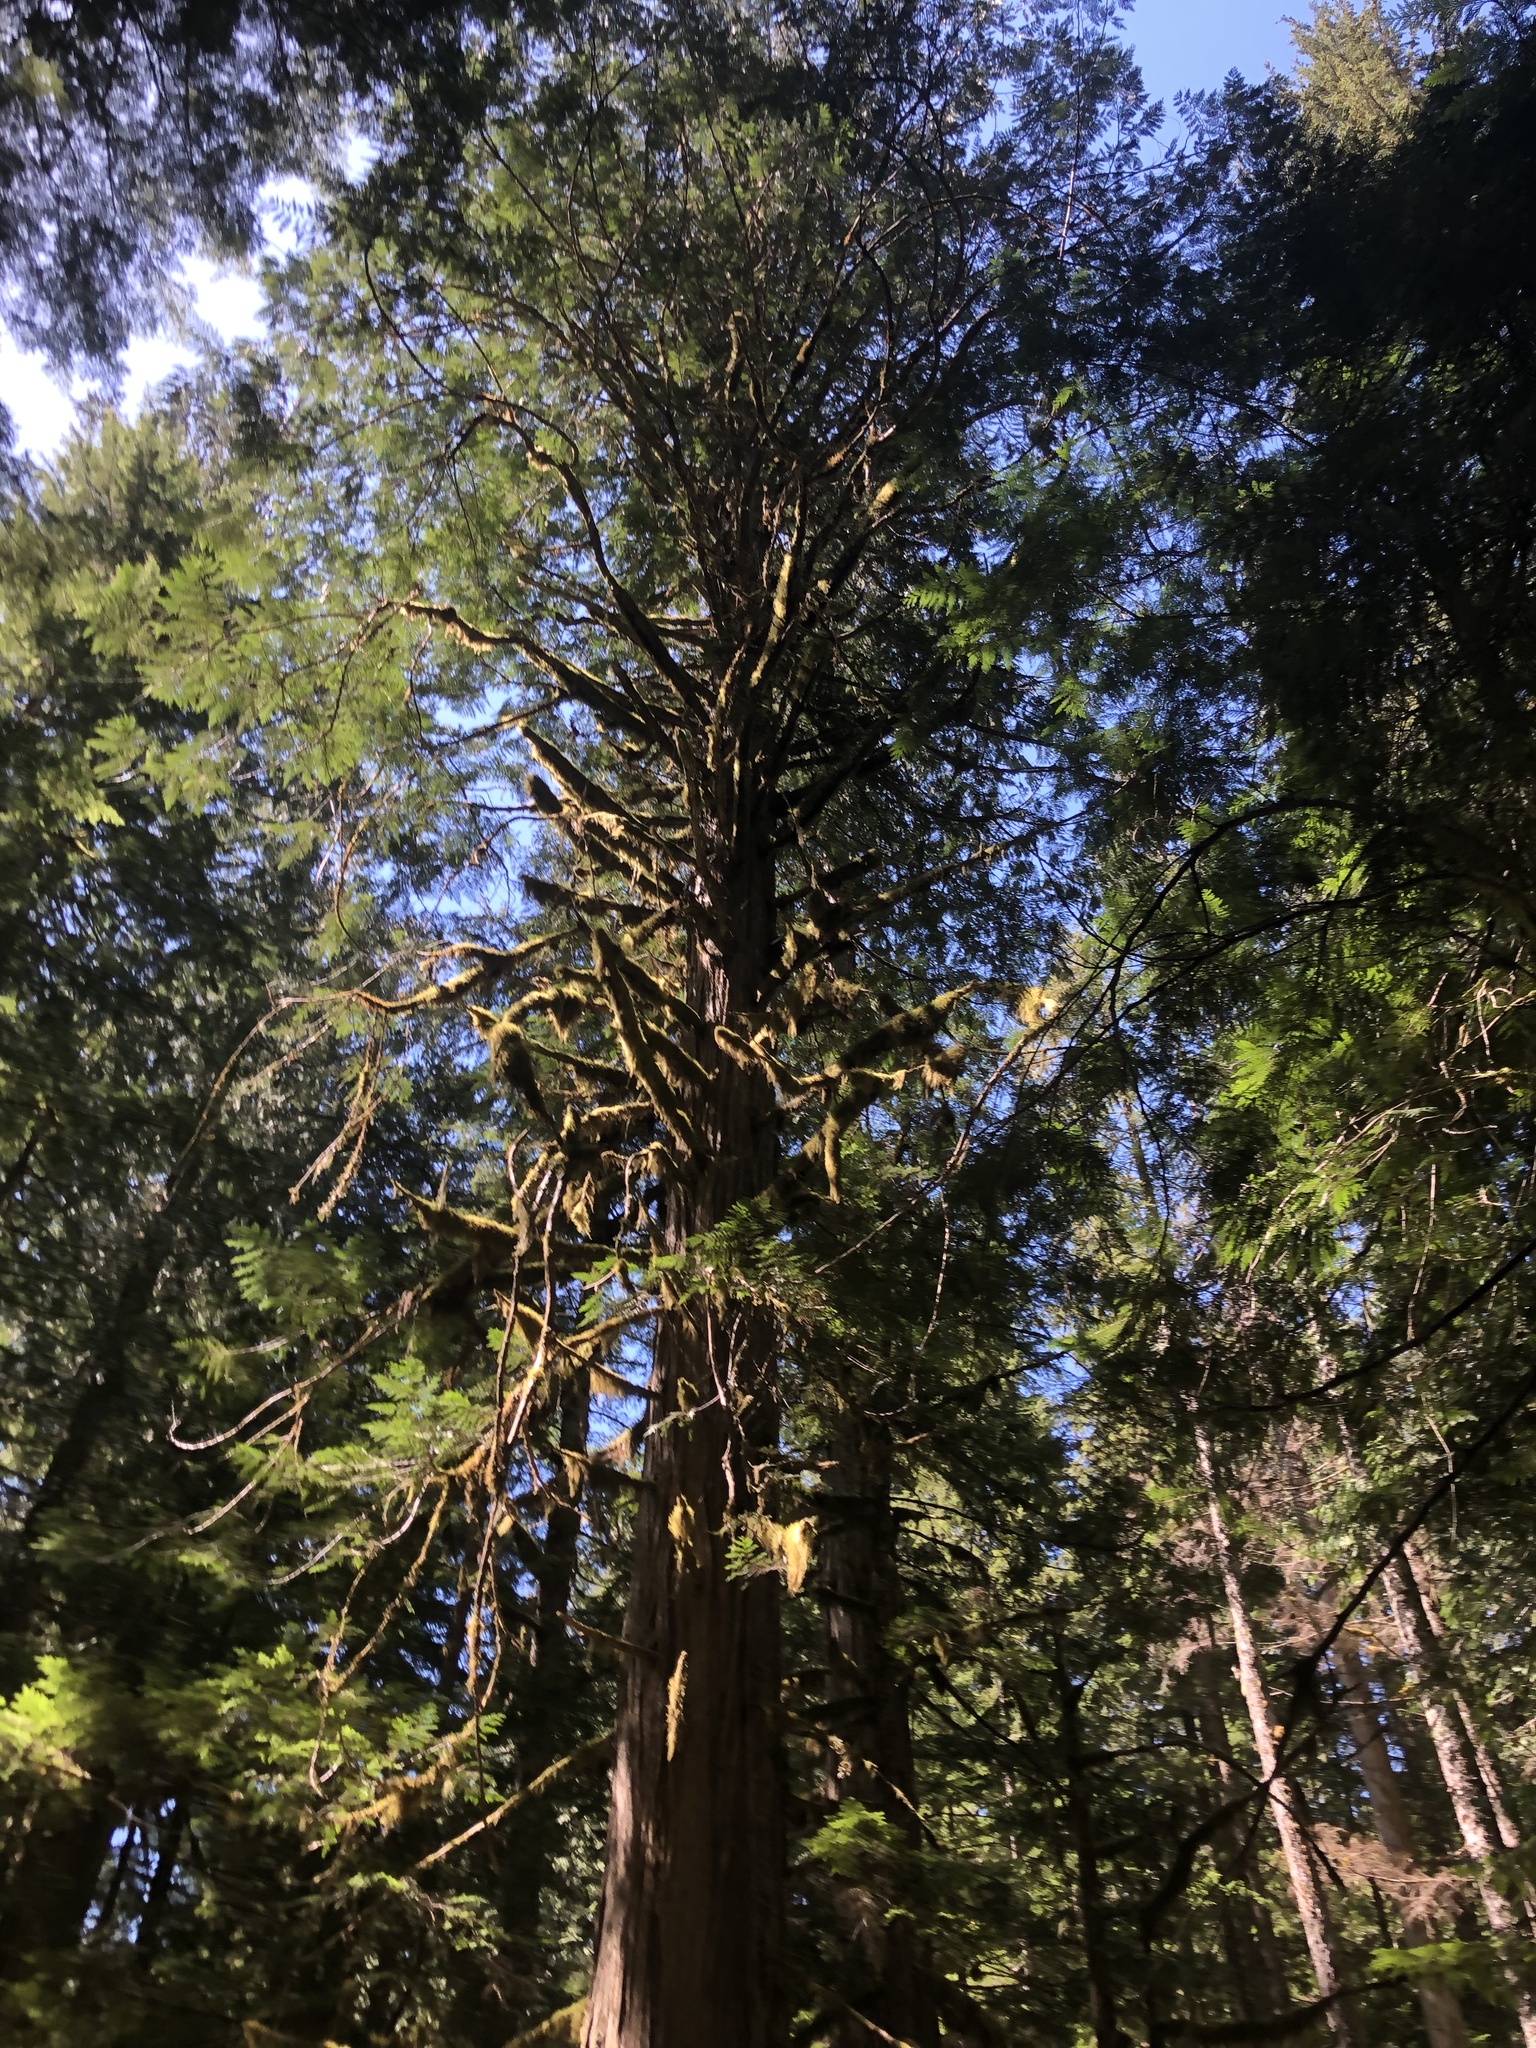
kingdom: Plantae
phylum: Tracheophyta
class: Pinopsida
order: Pinales
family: Cupressaceae
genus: Thuja
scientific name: Thuja plicata
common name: Western red-cedar
